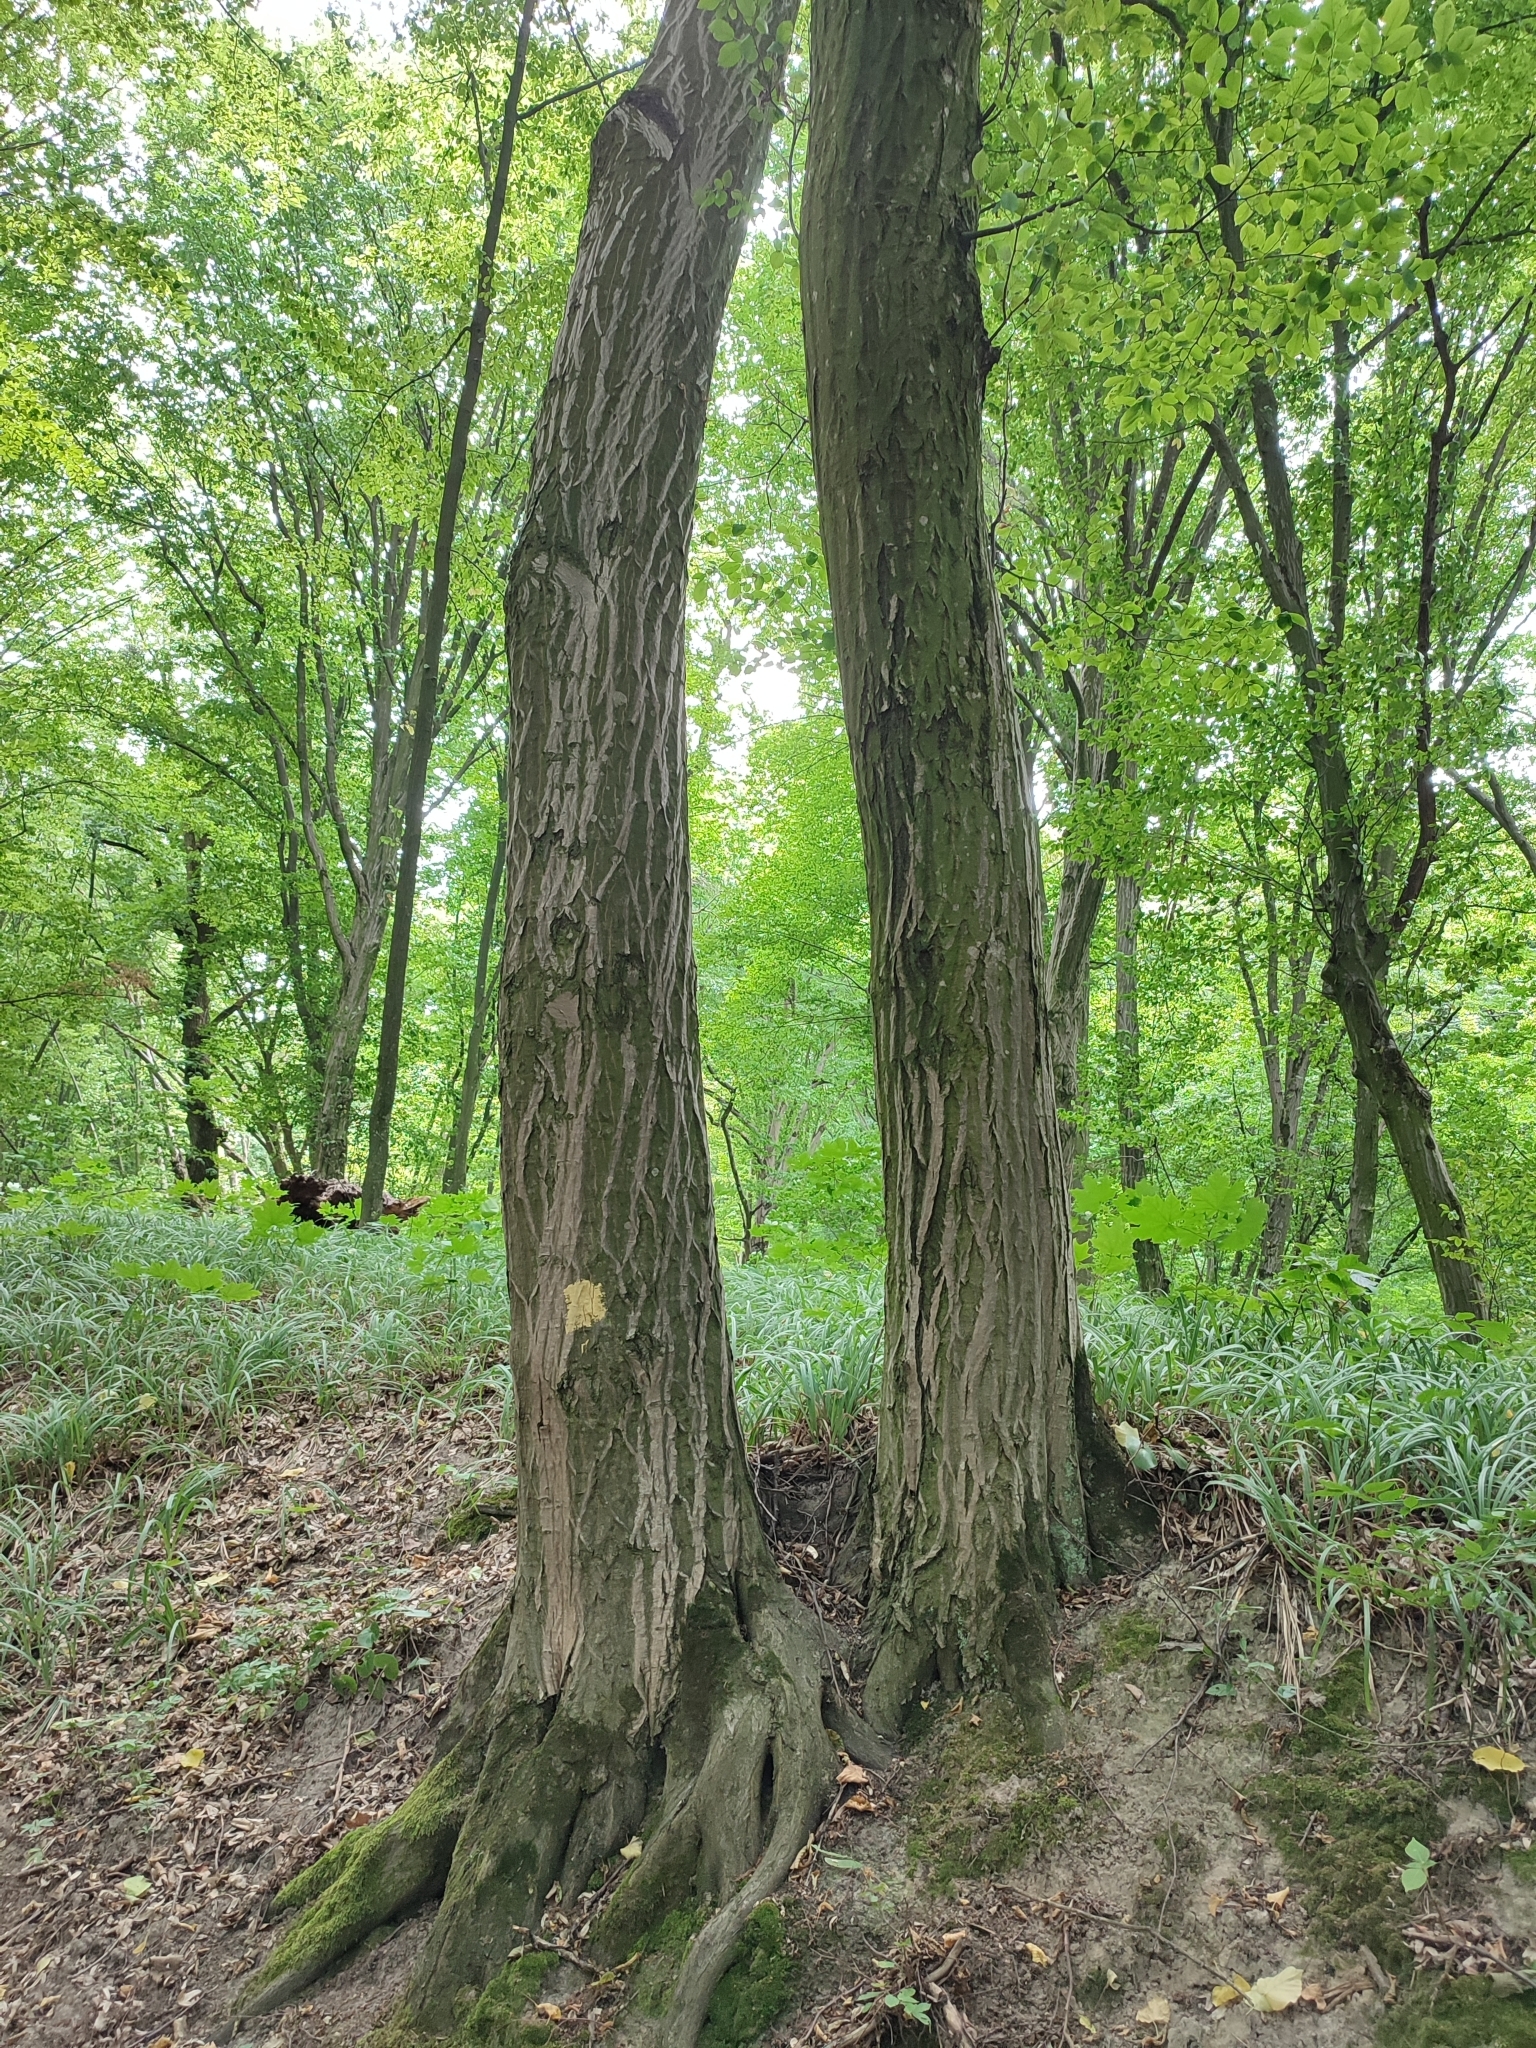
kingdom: Plantae
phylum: Tracheophyta
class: Magnoliopsida
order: Fagales
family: Betulaceae
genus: Carpinus
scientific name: Carpinus betulus
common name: Hornbeam
